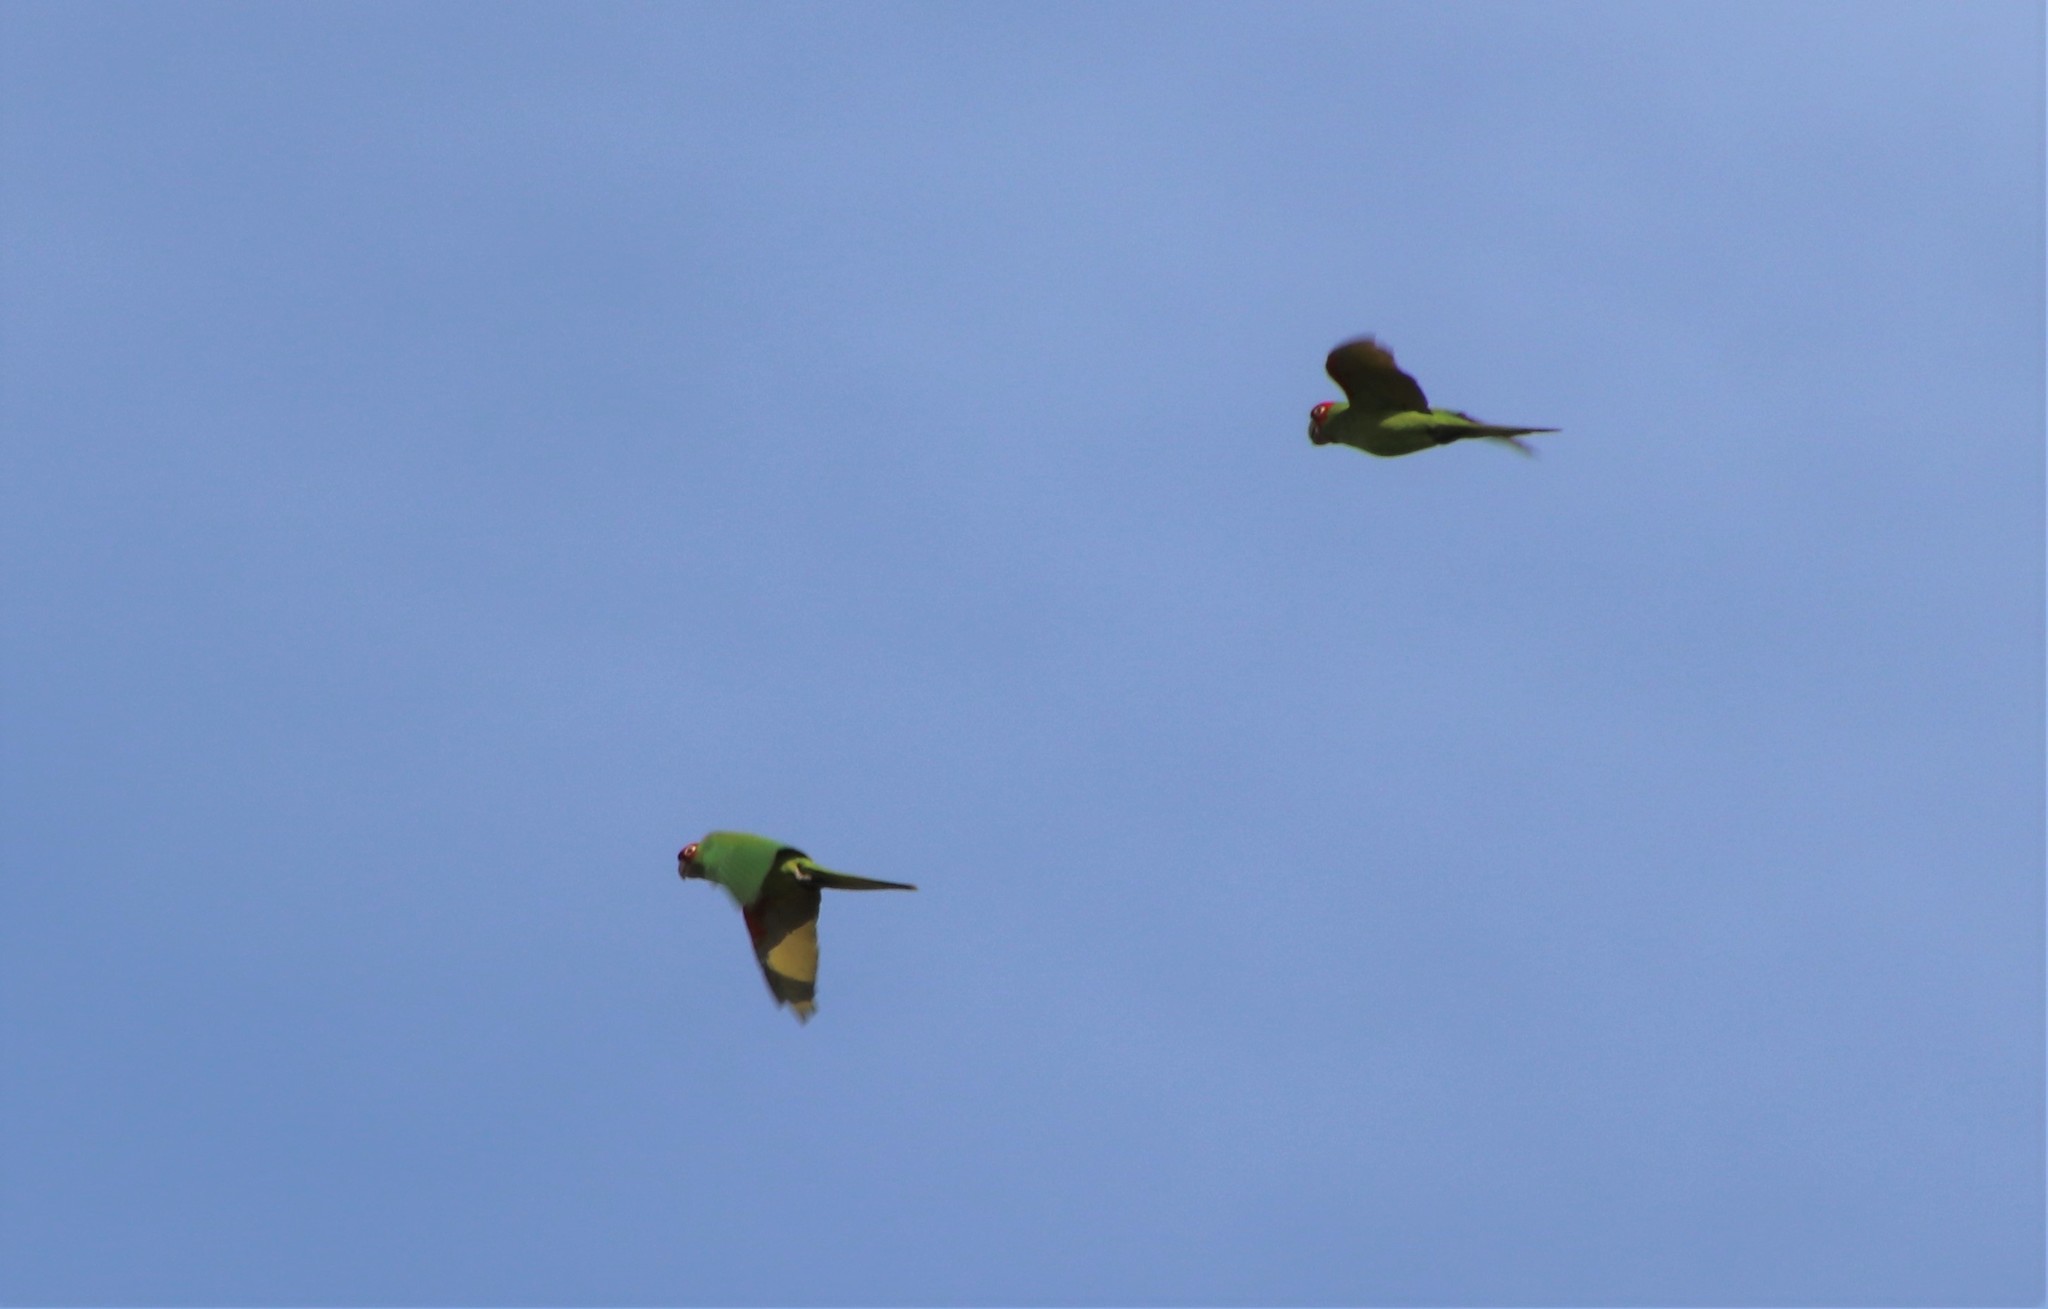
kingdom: Animalia
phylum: Chordata
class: Aves
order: Psittaciformes
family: Psittacidae
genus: Aratinga
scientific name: Aratinga erythrogenys
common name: Red-masked parakeet
